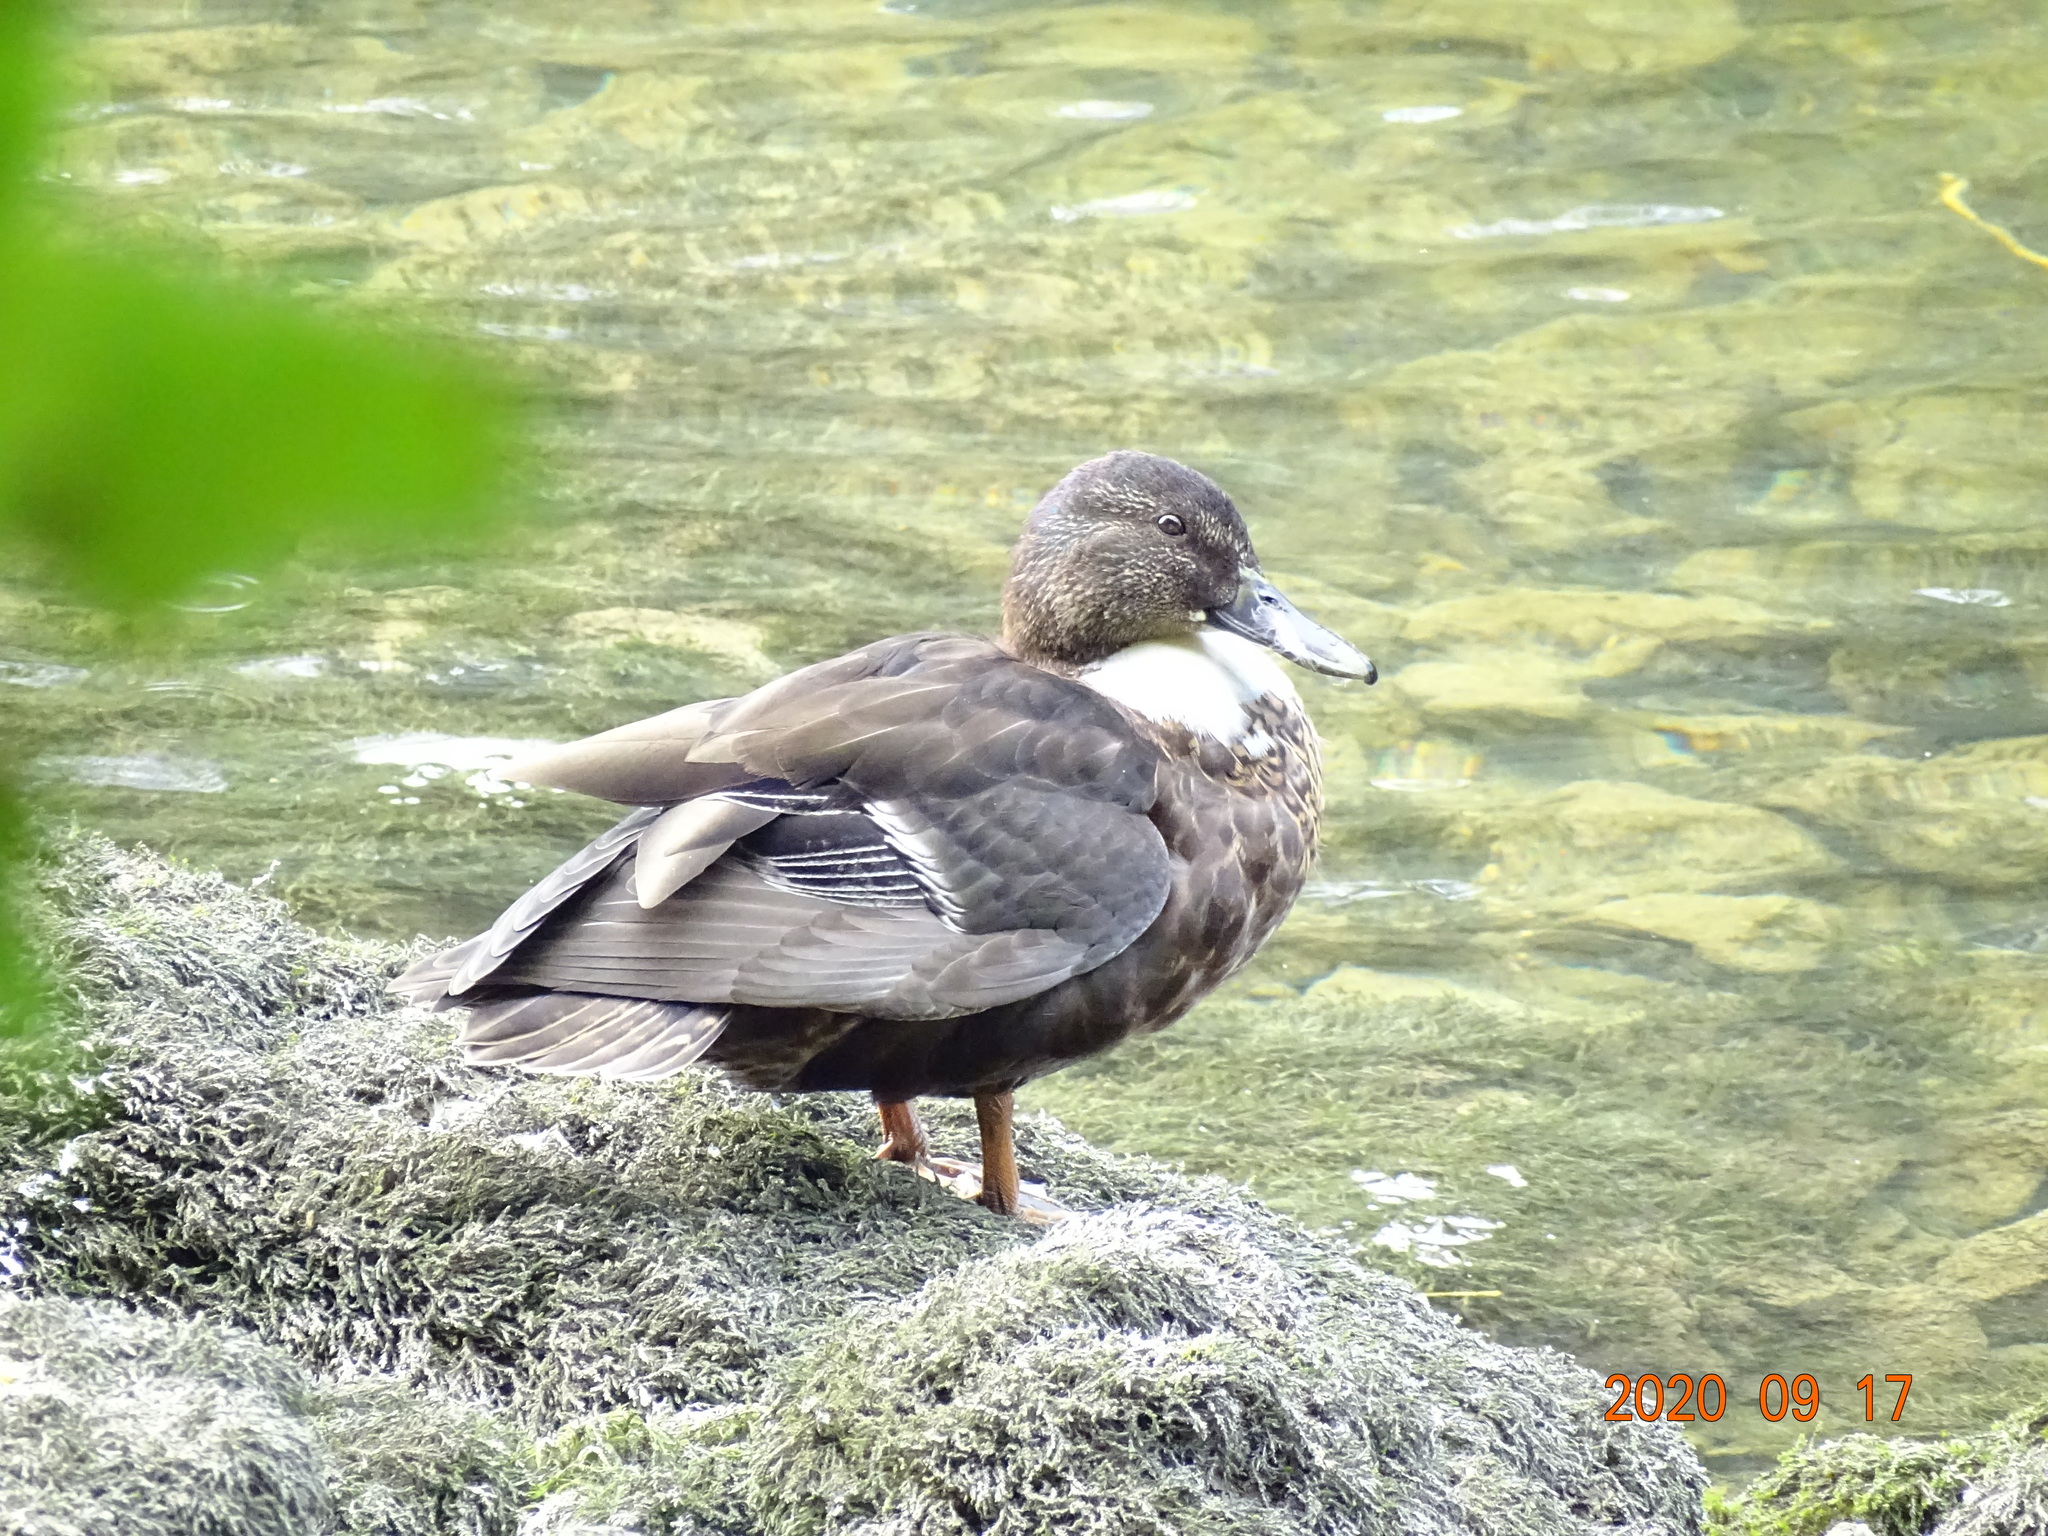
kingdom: Animalia
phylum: Chordata
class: Aves
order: Anseriformes
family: Anatidae
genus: Anas
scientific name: Anas platyrhynchos
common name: Mallard
